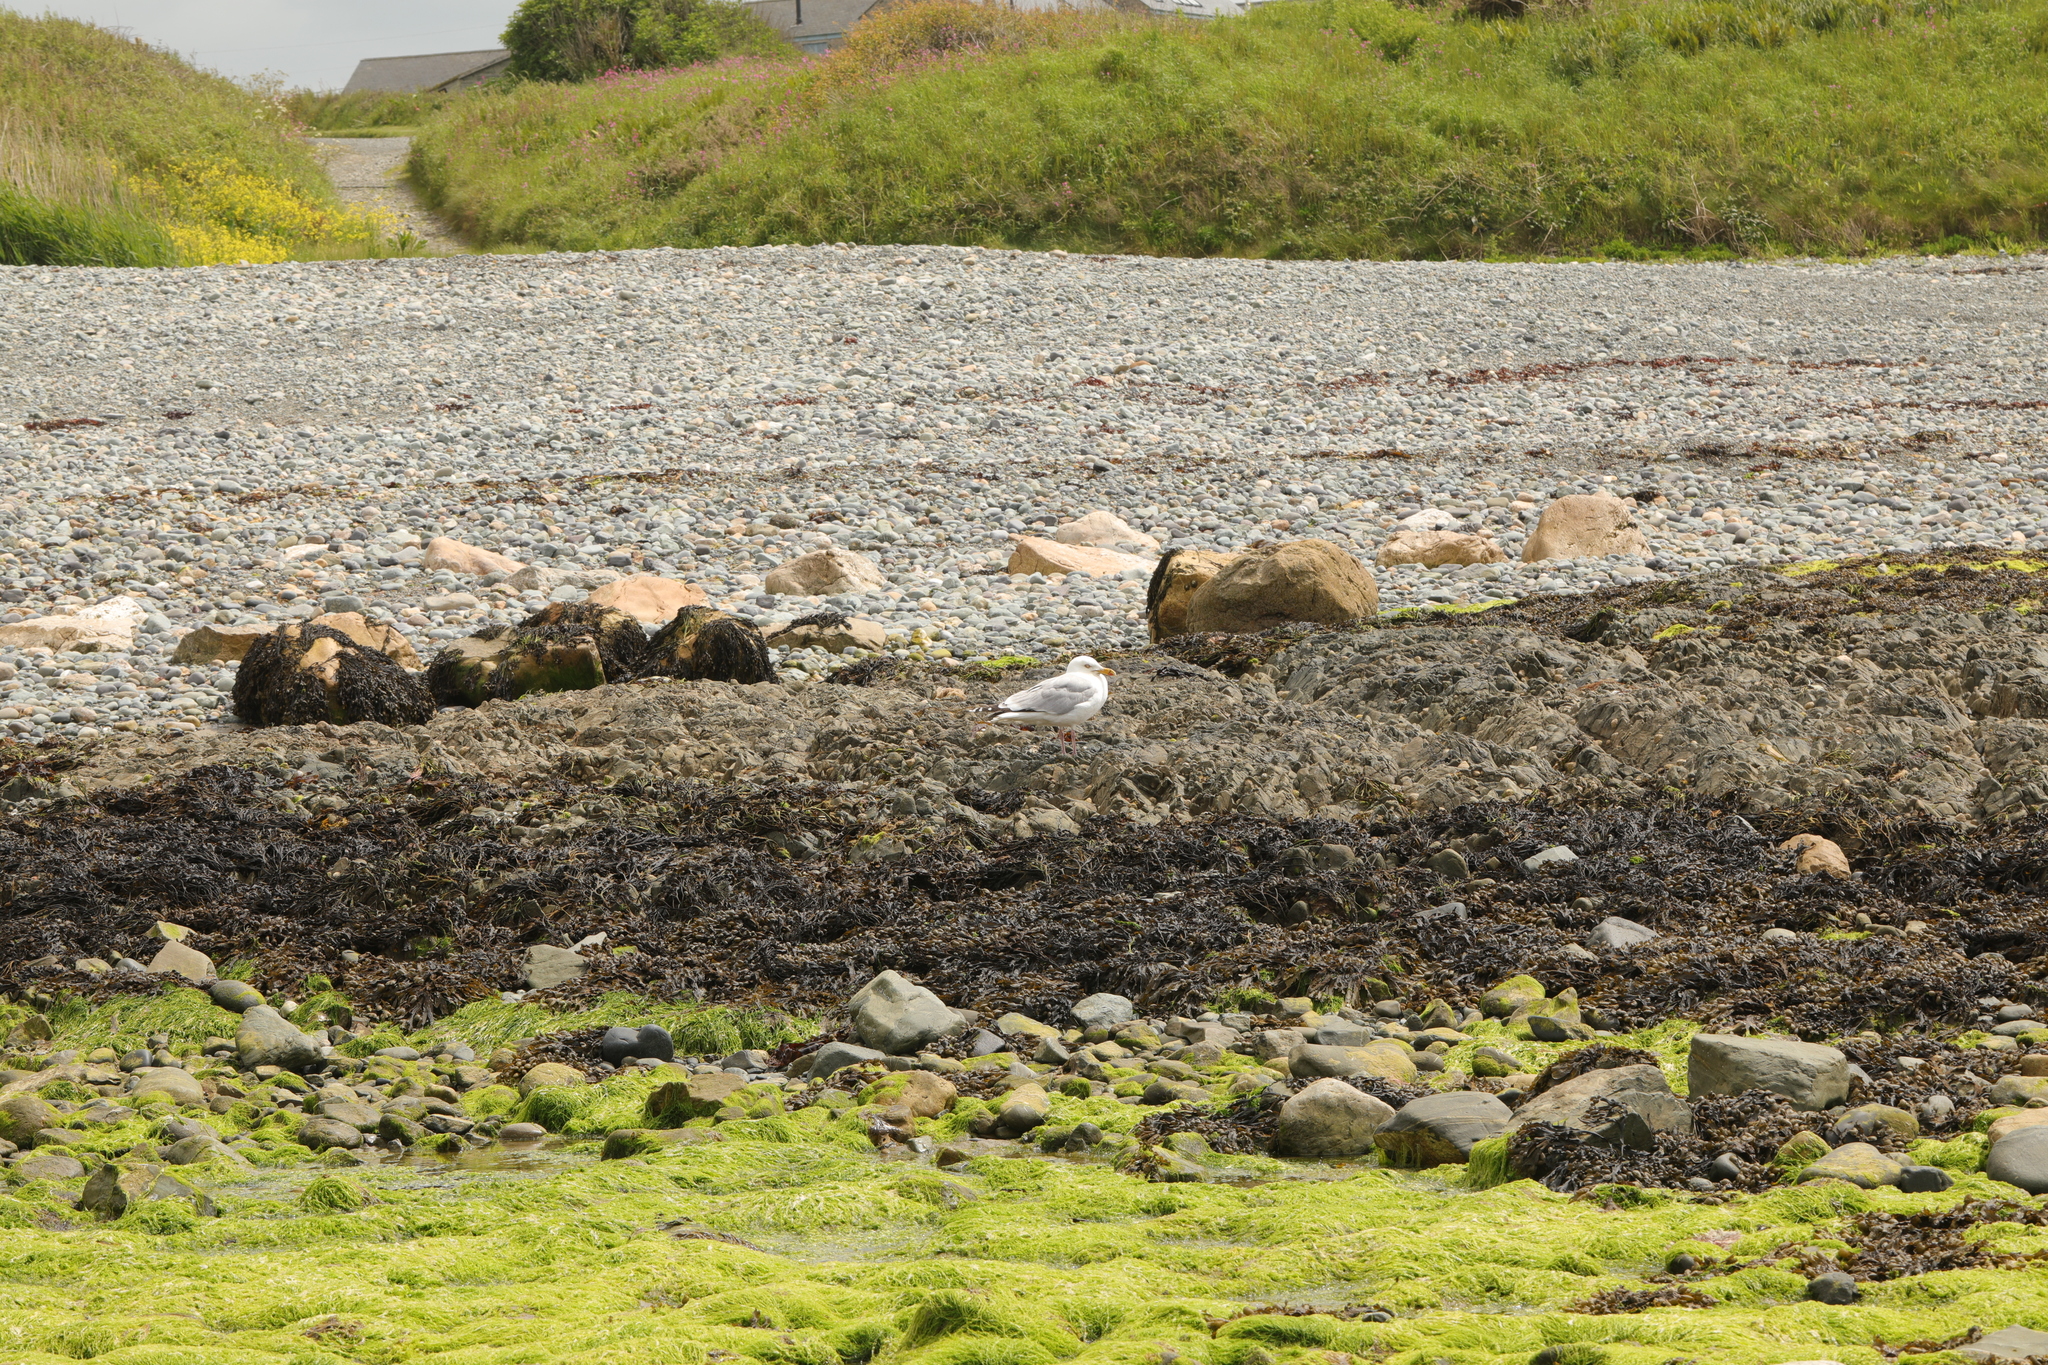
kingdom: Animalia
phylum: Chordata
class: Aves
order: Charadriiformes
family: Laridae
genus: Larus
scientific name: Larus argentatus
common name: Herring gull
